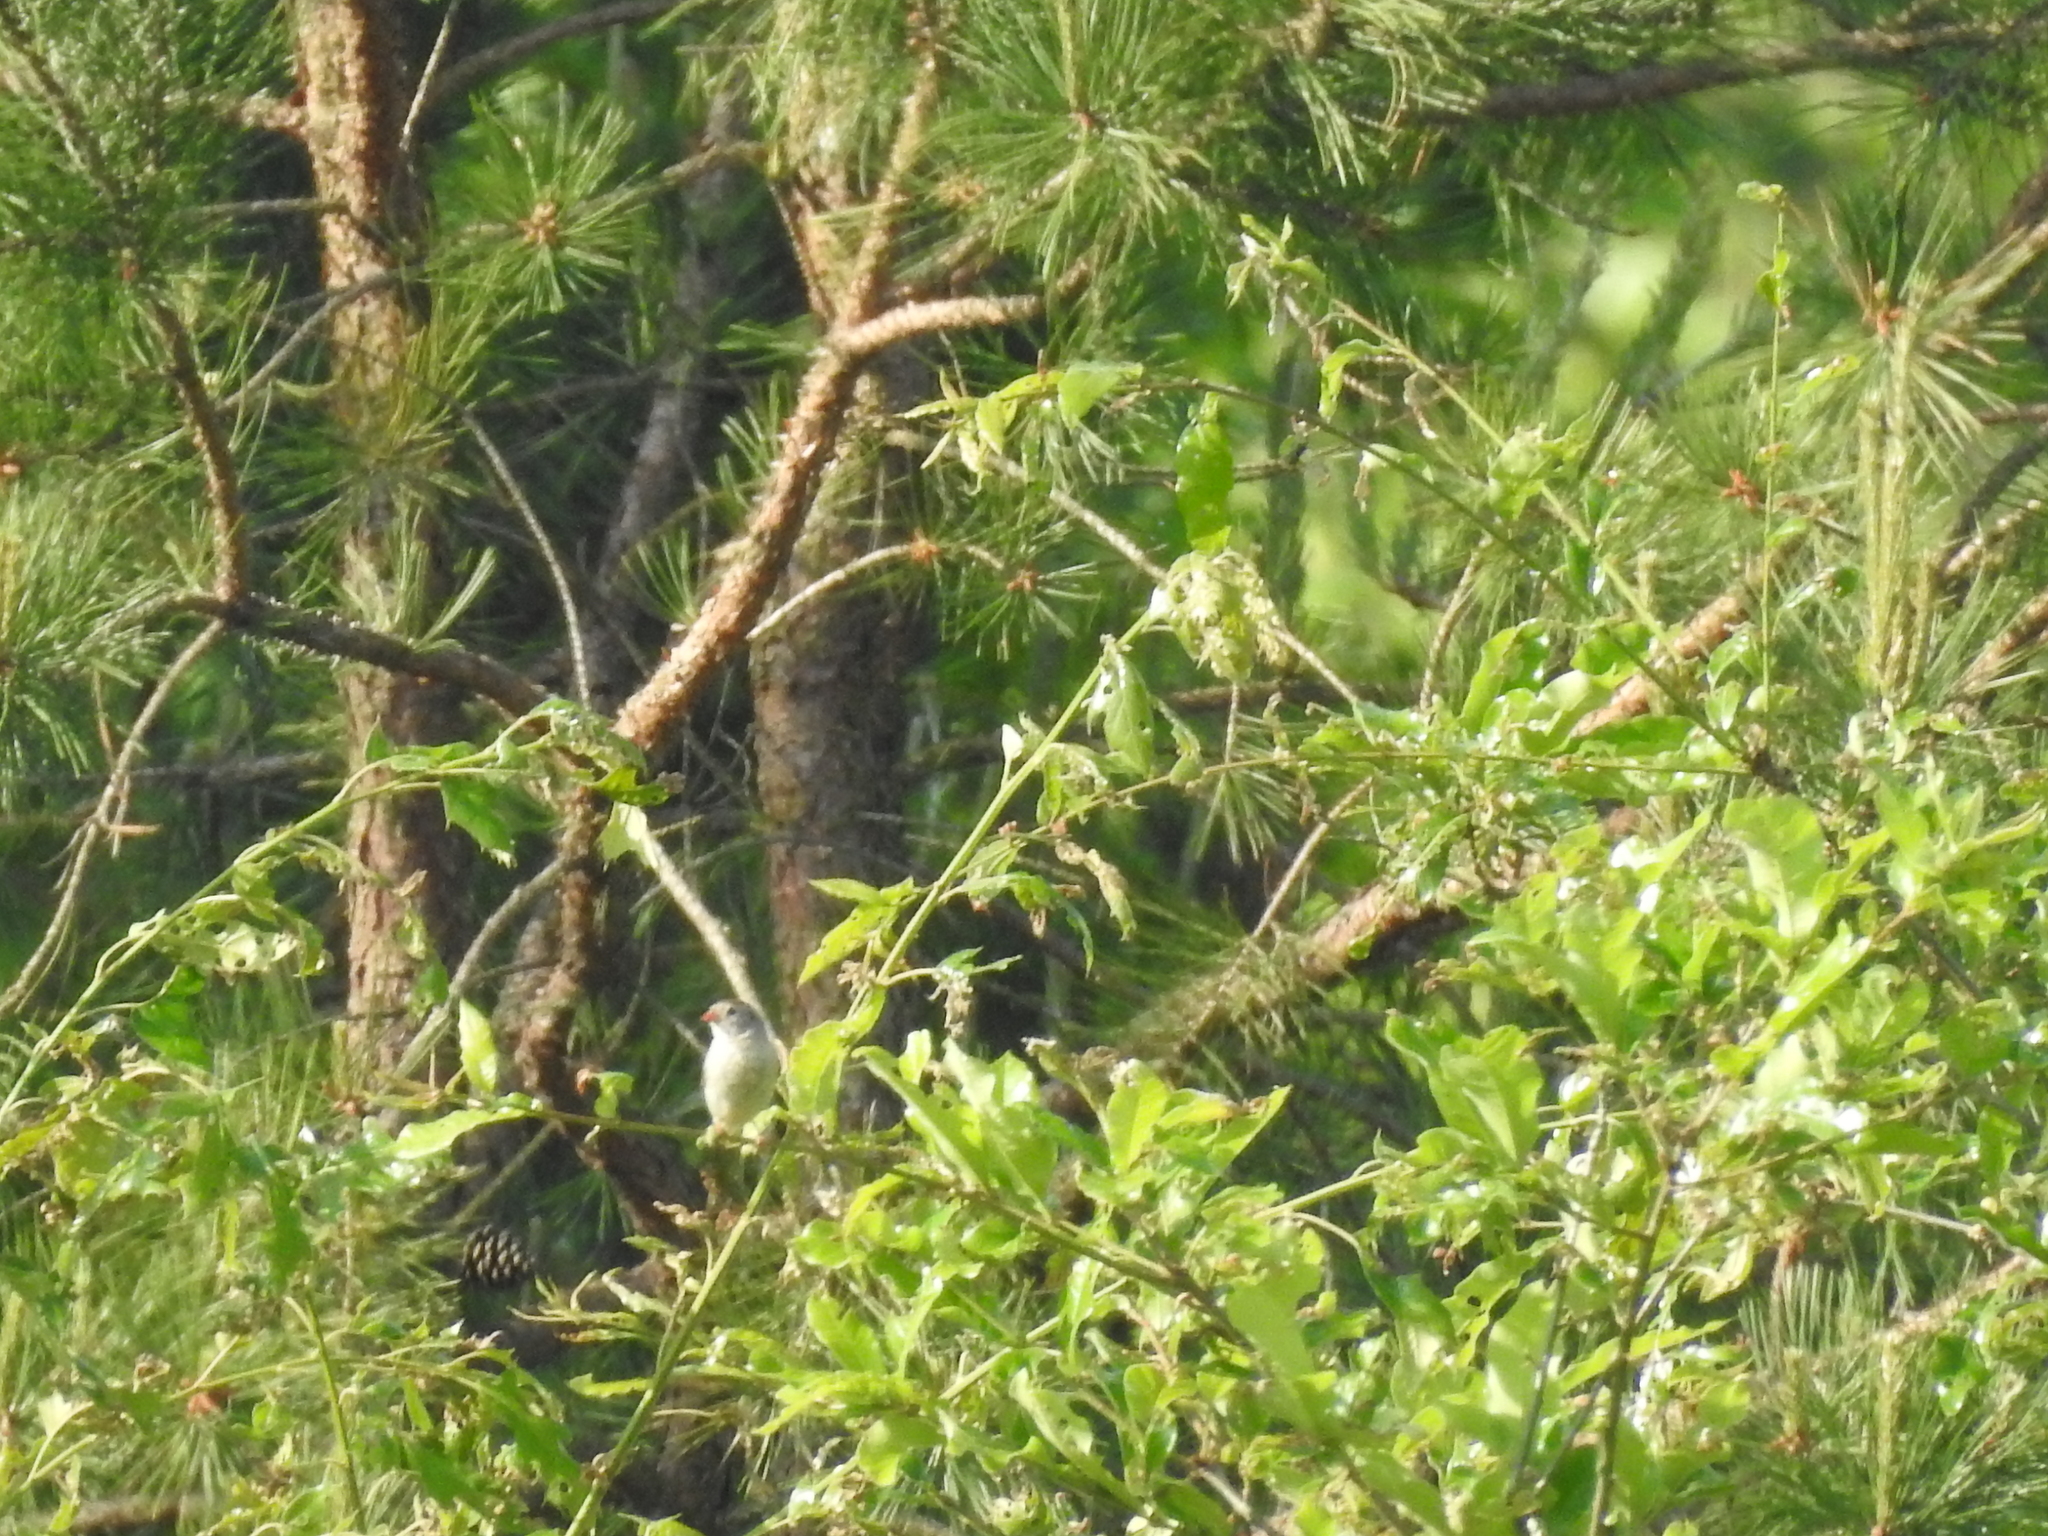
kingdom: Animalia
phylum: Chordata
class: Aves
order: Passeriformes
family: Passerellidae
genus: Spizella
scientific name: Spizella pusilla
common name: Field sparrow
